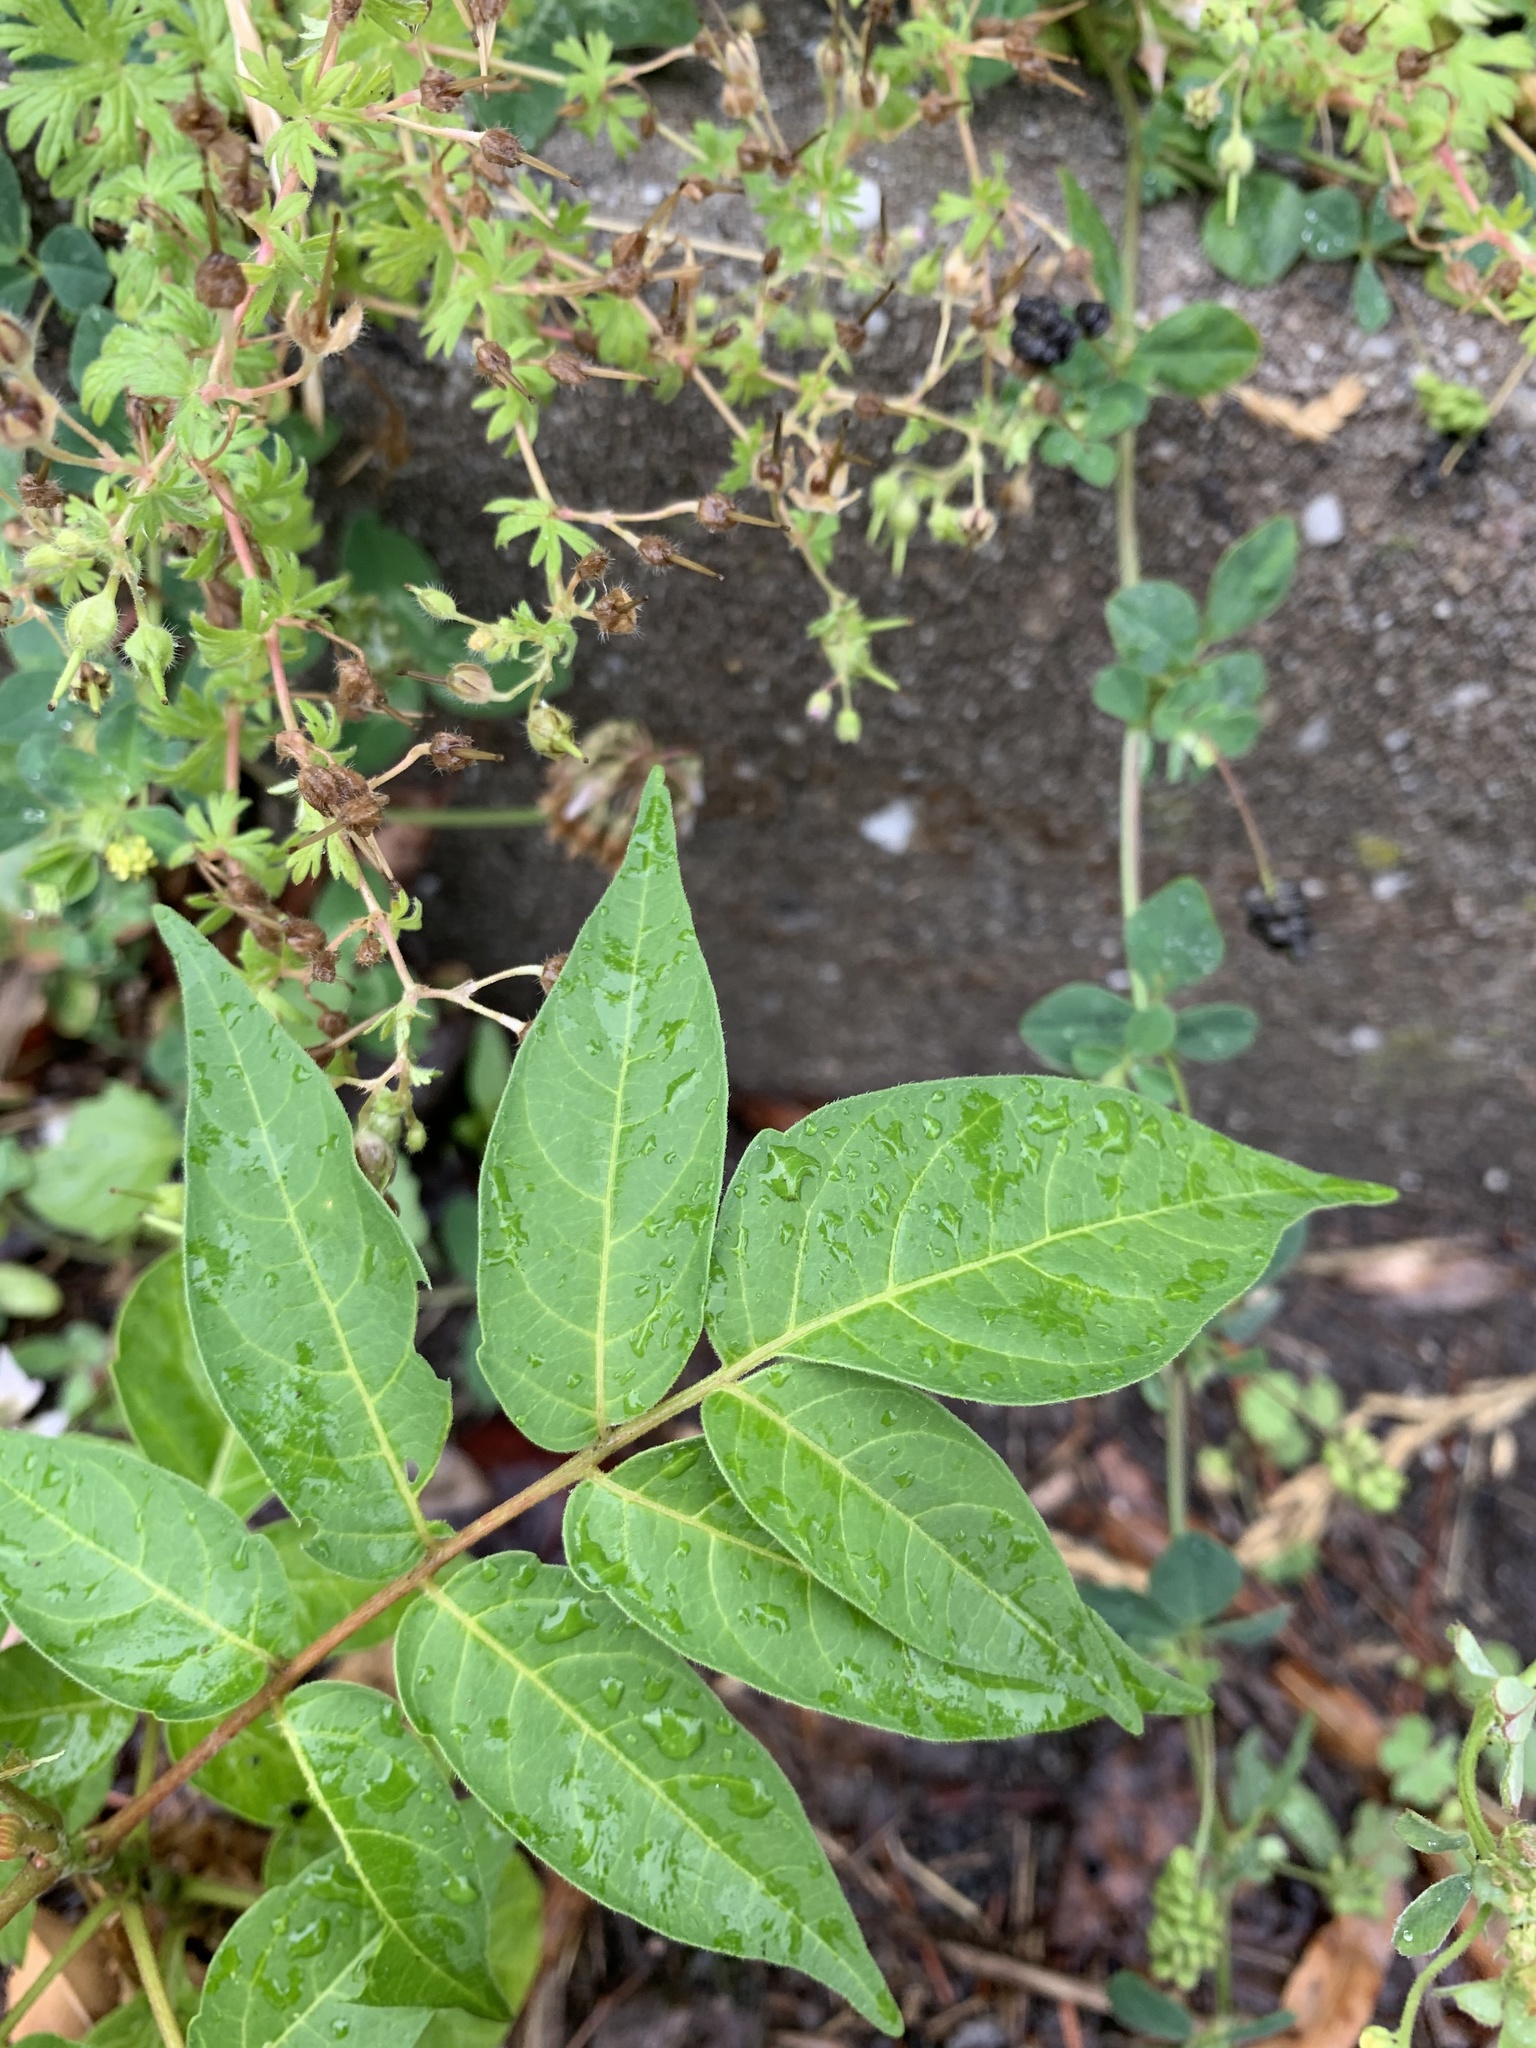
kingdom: Plantae
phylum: Tracheophyta
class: Magnoliopsida
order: Sapindales
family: Simaroubaceae
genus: Ailanthus
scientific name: Ailanthus altissima
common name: Tree-of-heaven
